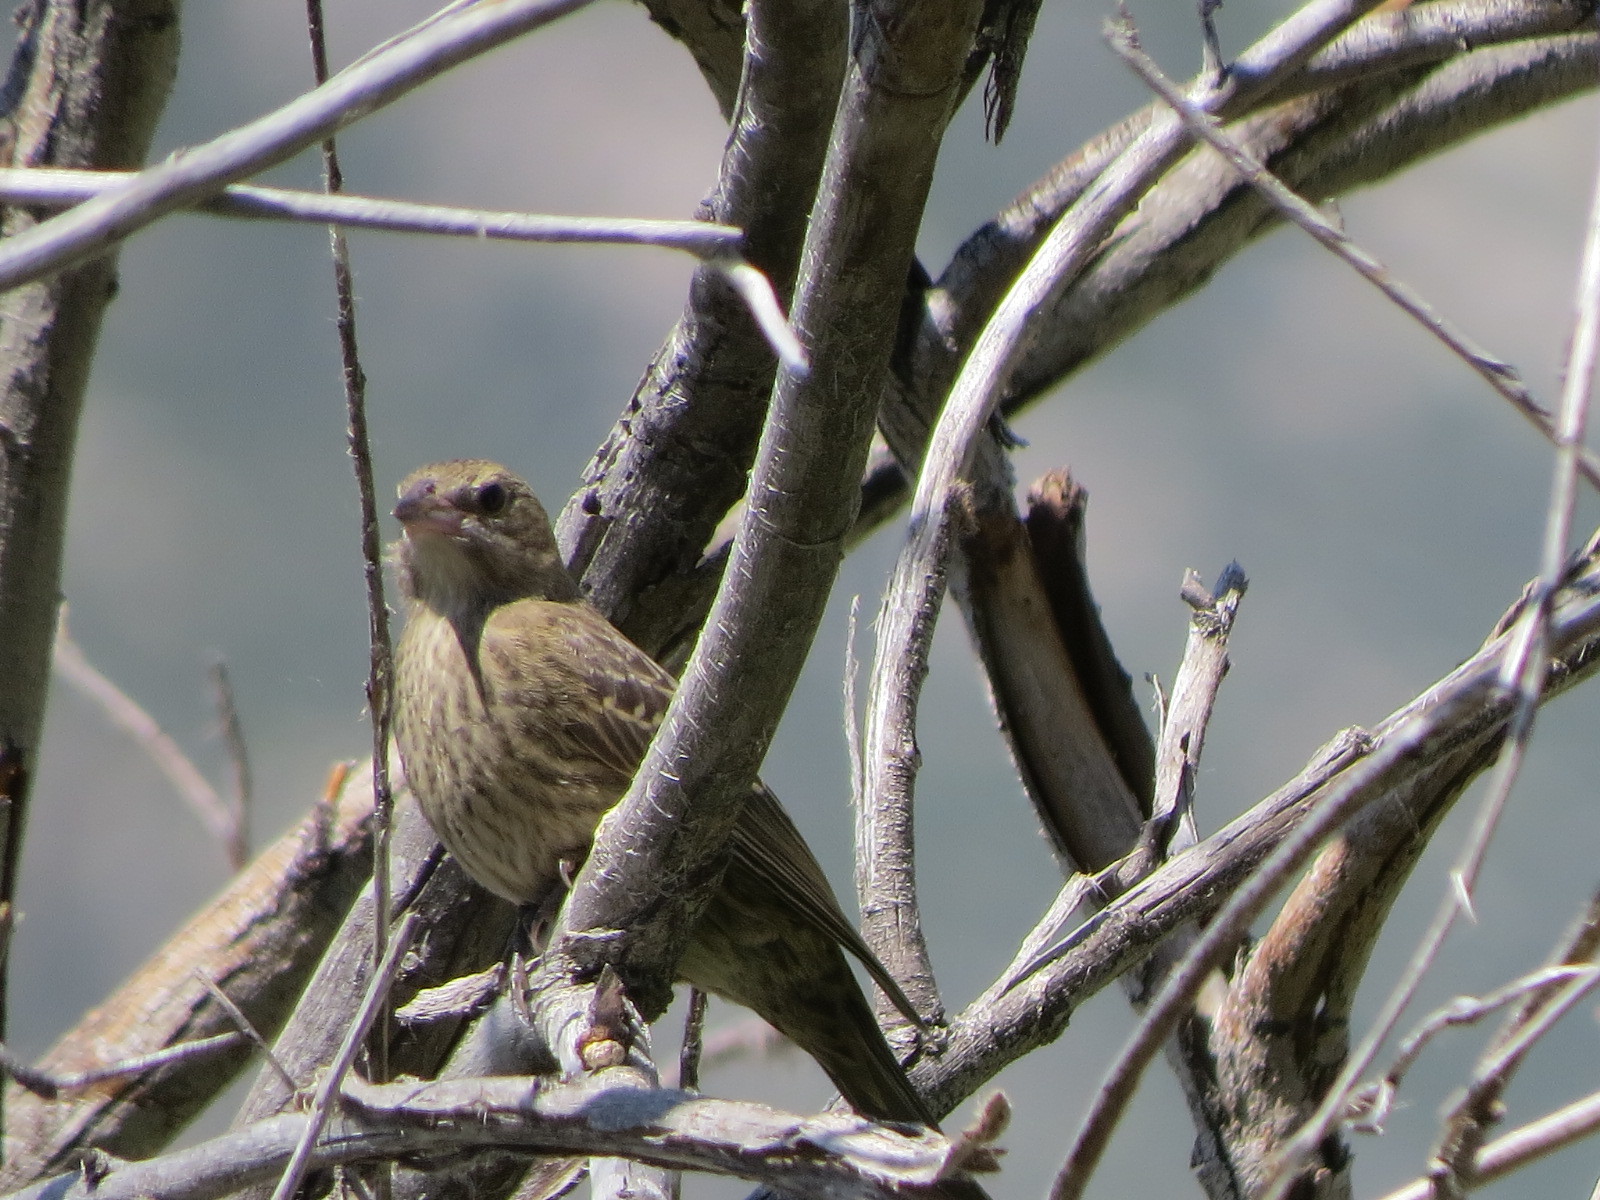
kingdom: Animalia
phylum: Chordata
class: Aves
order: Passeriformes
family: Icteridae
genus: Molothrus
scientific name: Molothrus ater
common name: Brown-headed cowbird
